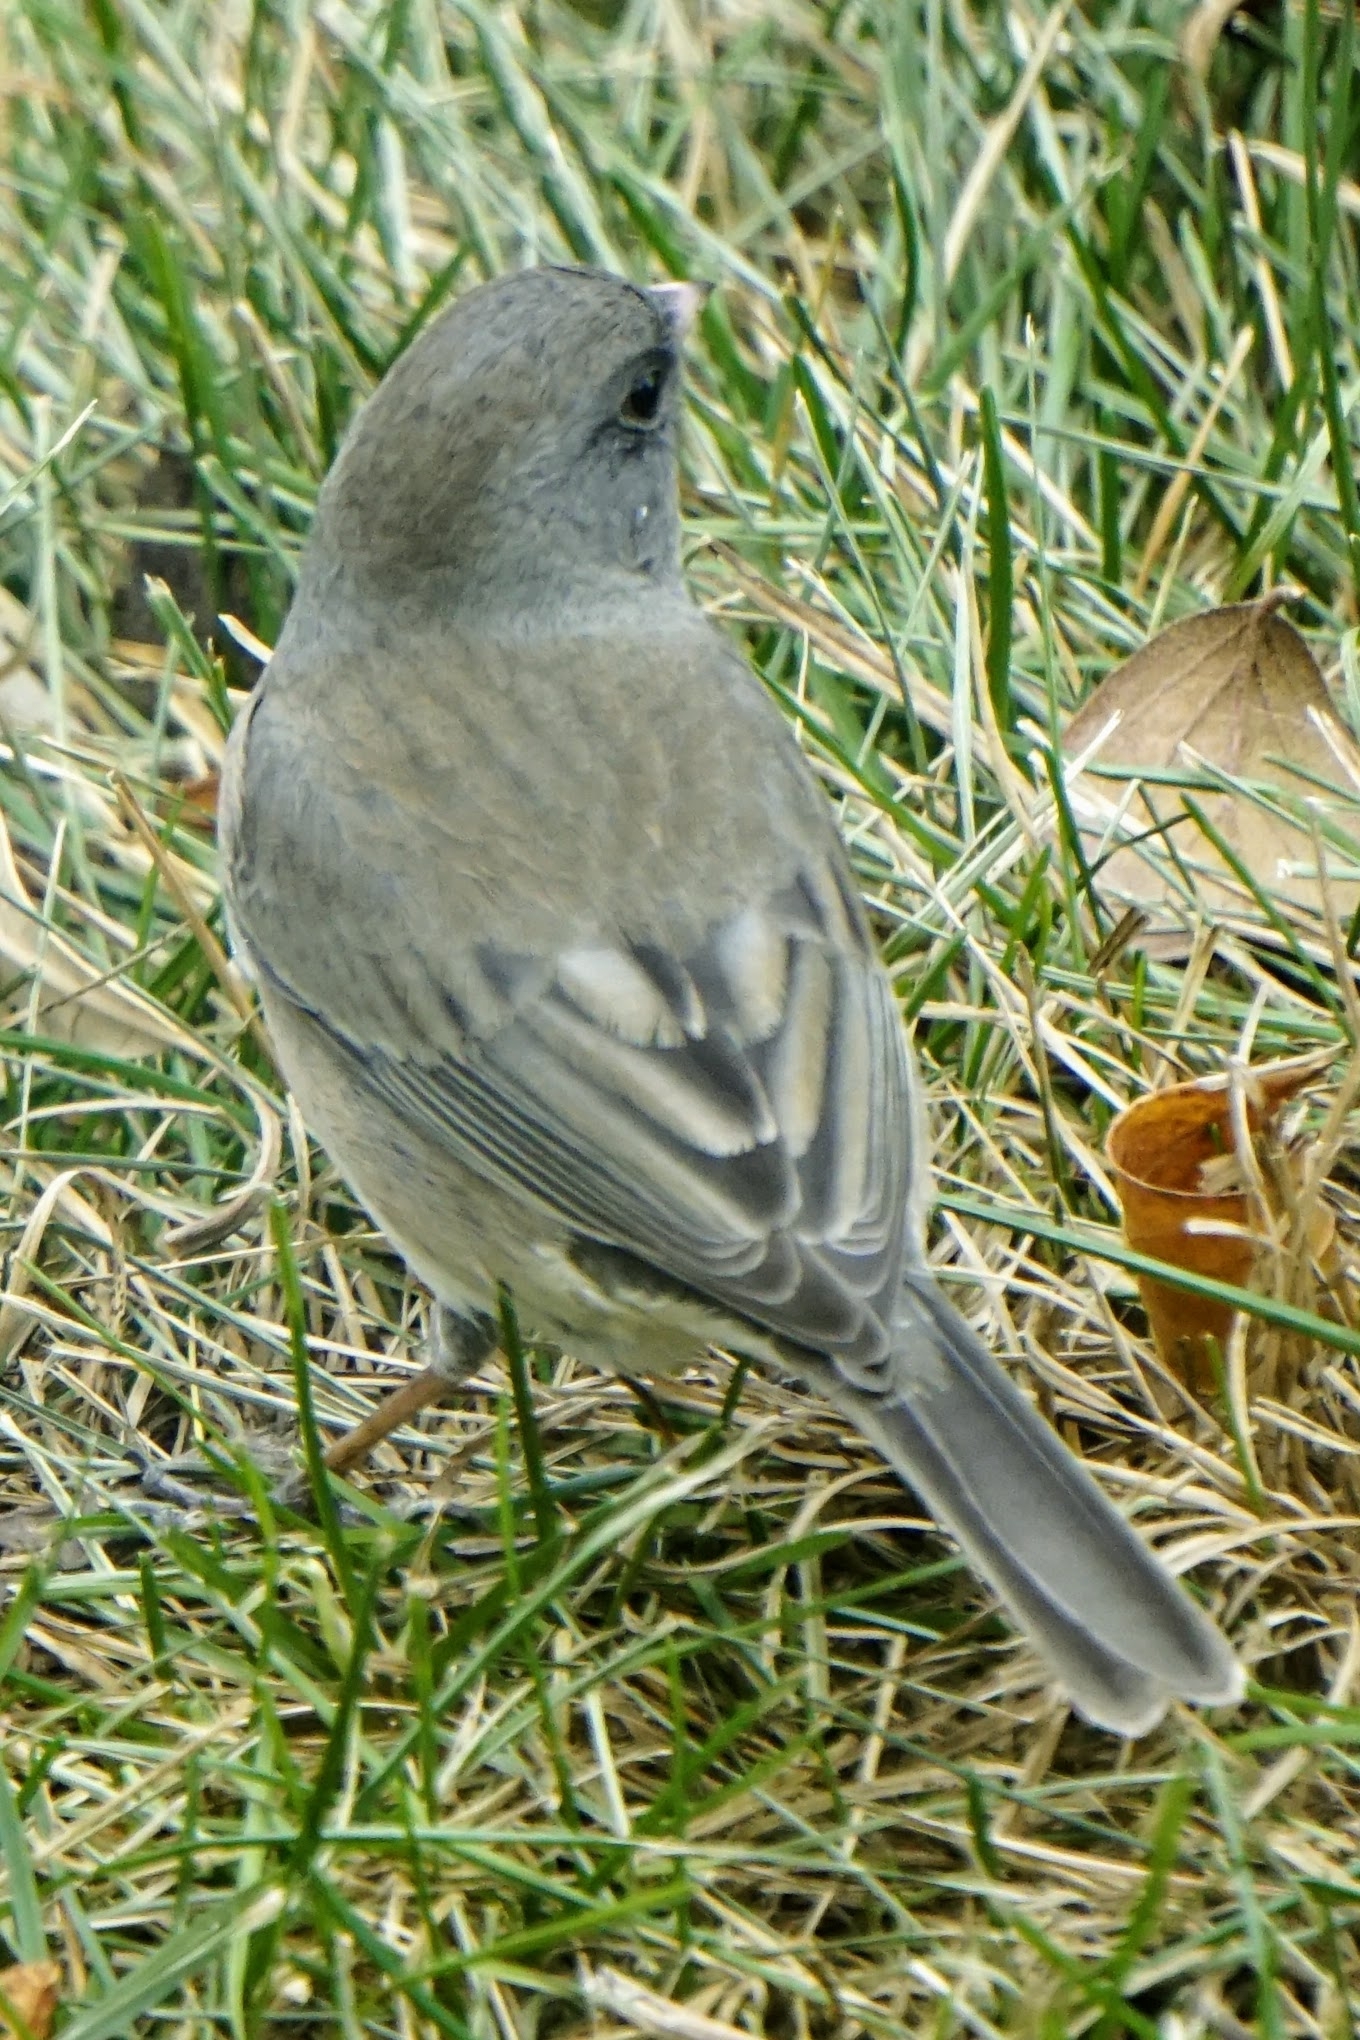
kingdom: Animalia
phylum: Chordata
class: Aves
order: Passeriformes
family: Passerellidae
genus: Junco
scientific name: Junco hyemalis
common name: Dark-eyed junco
